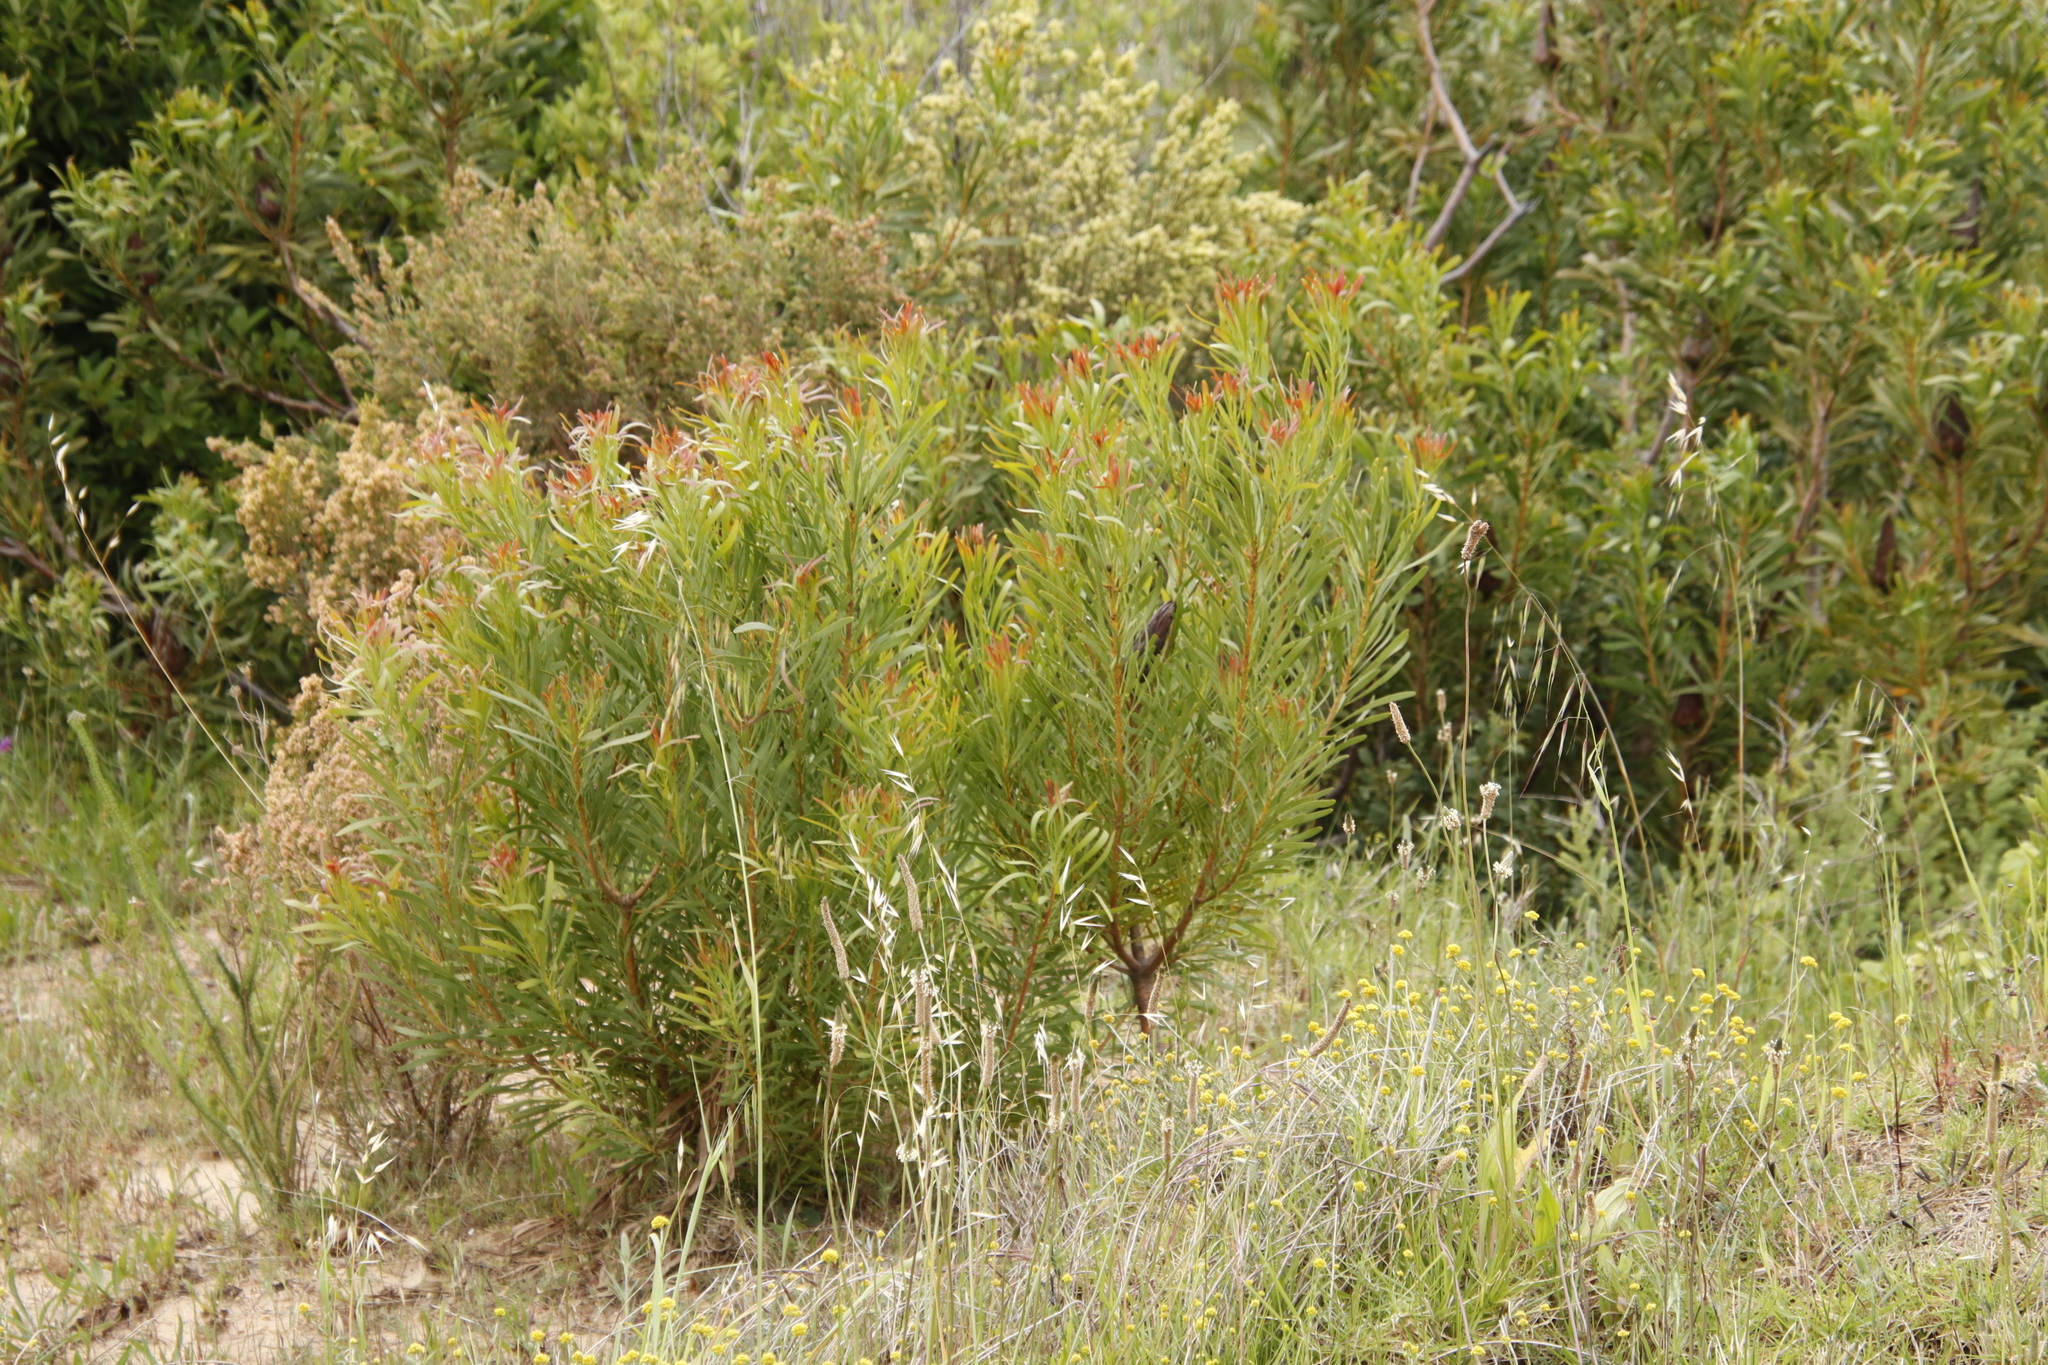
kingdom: Plantae
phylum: Tracheophyta
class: Magnoliopsida
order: Proteales
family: Proteaceae
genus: Protea
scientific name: Protea repens
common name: Sugarbush
